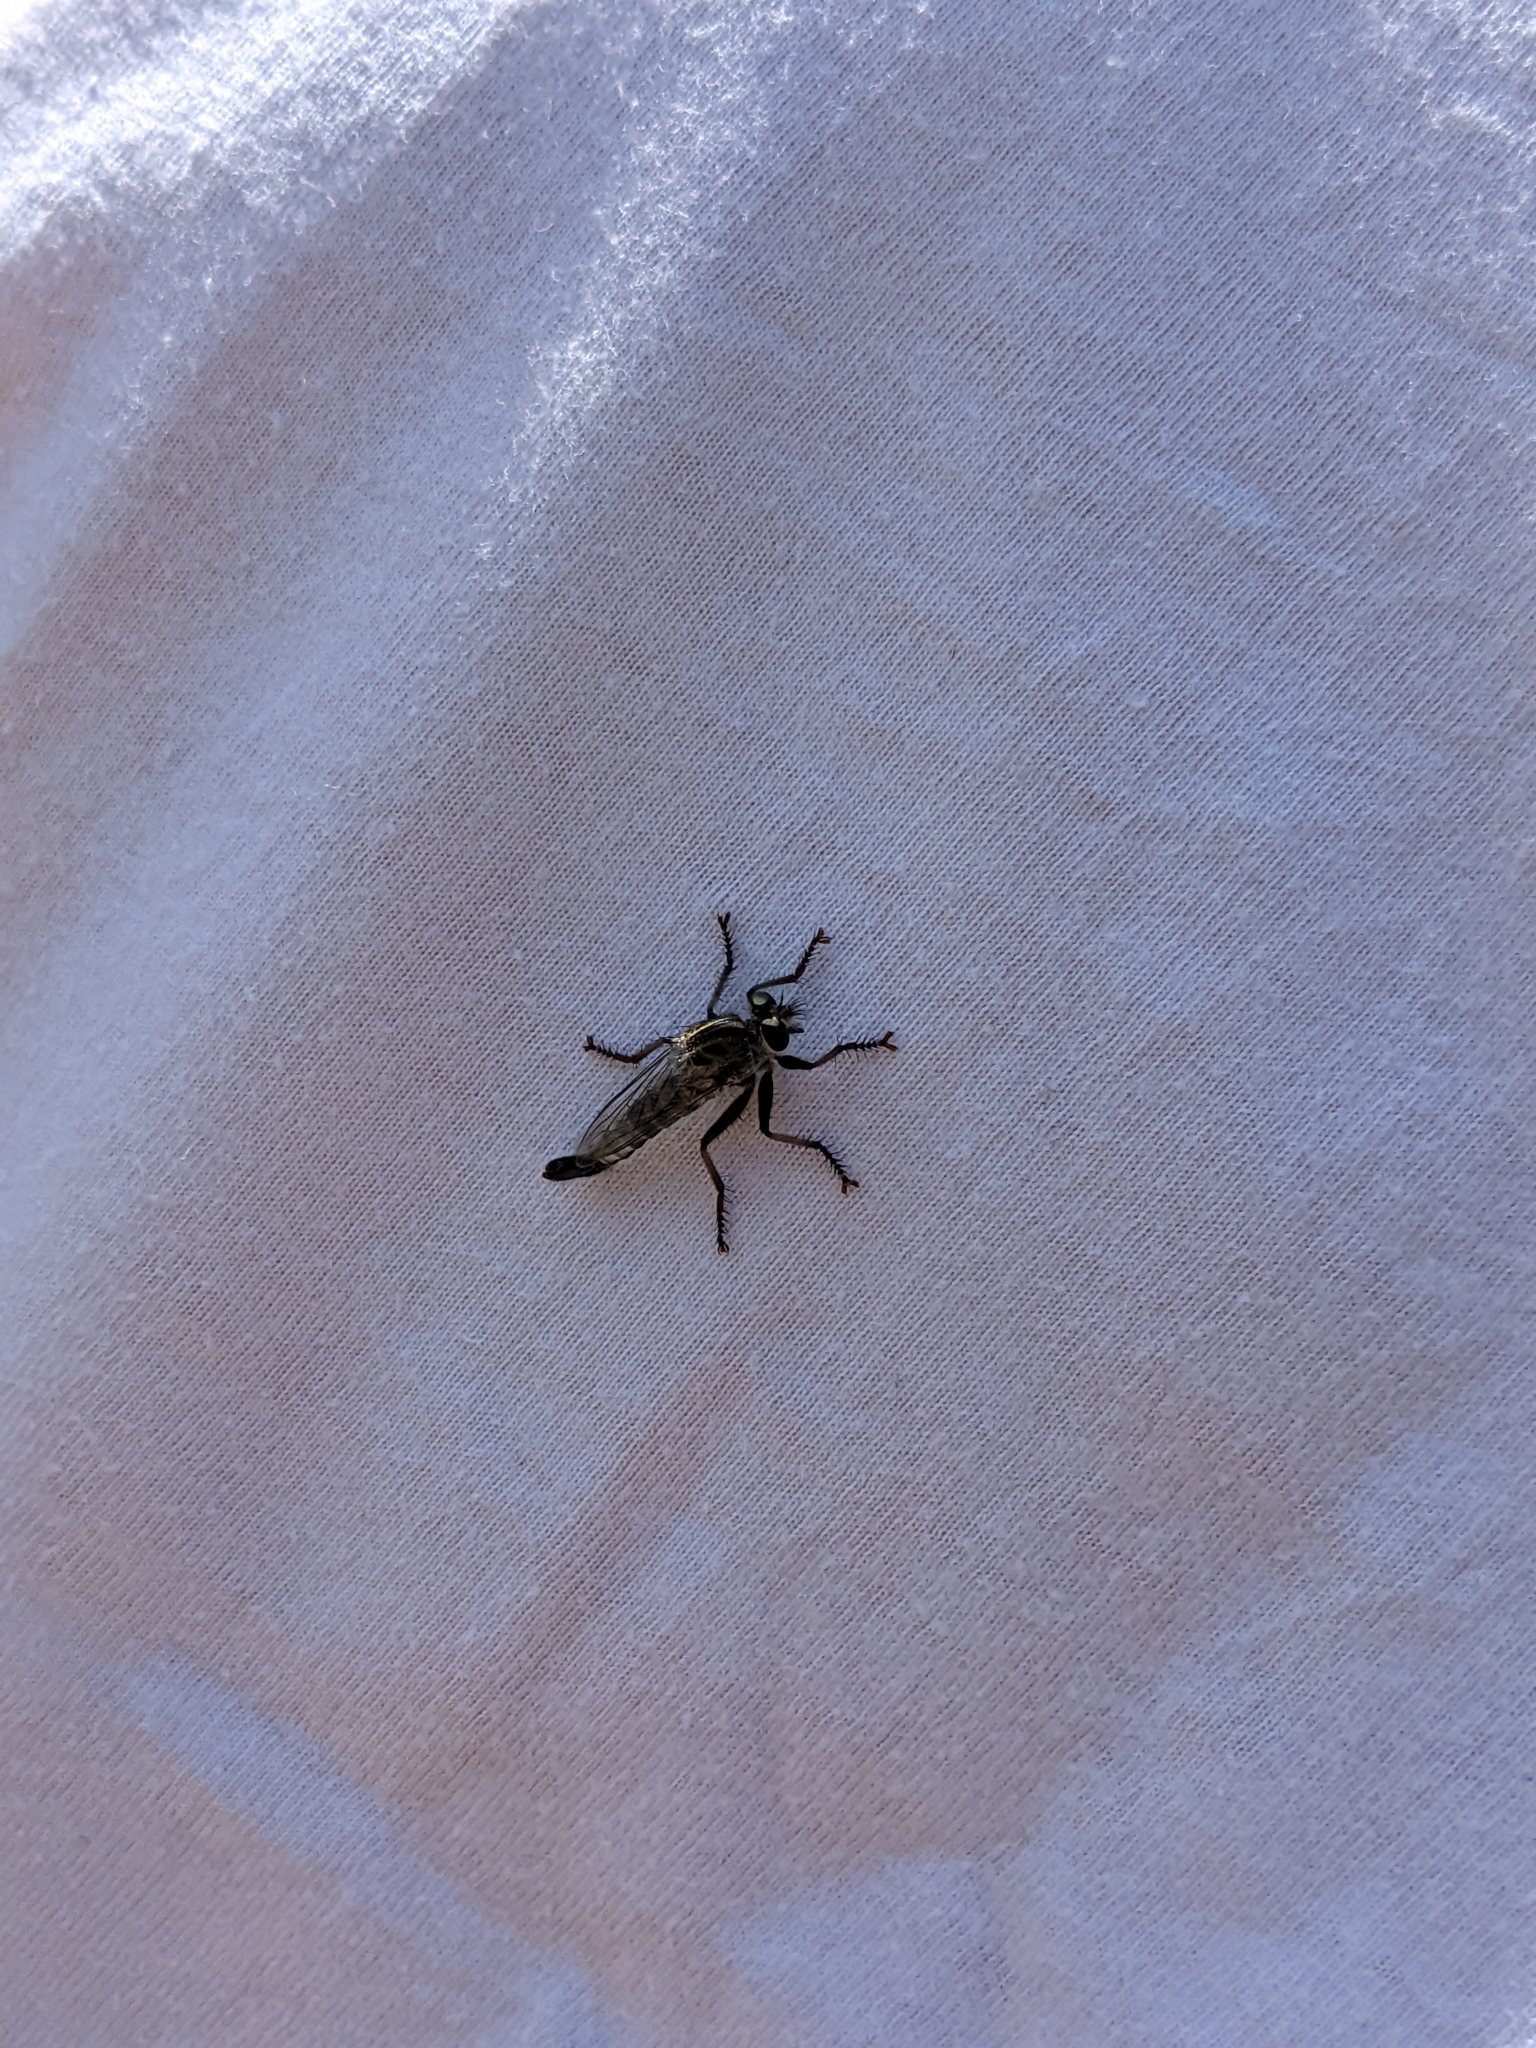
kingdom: Animalia
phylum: Arthropoda
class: Insecta
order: Diptera
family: Asilidae
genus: Efferia
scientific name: Efferia aestuans
